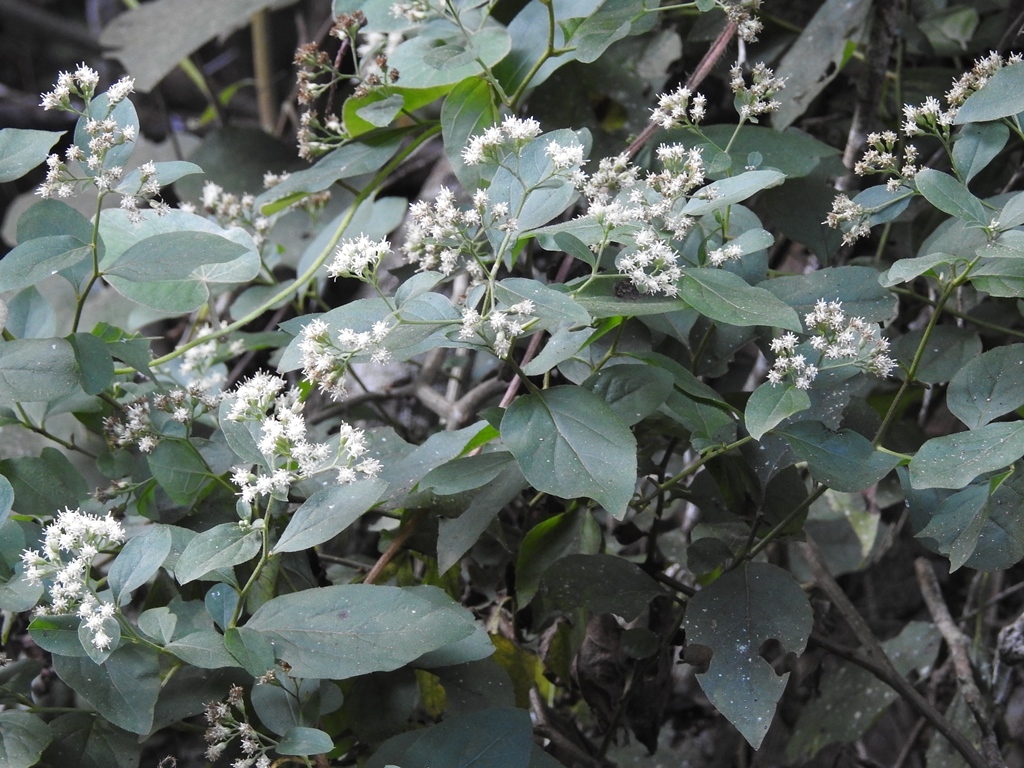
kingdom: Plantae
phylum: Tracheophyta
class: Magnoliopsida
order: Asterales
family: Asteraceae
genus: Archibaccharis
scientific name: Archibaccharis schiedeana
